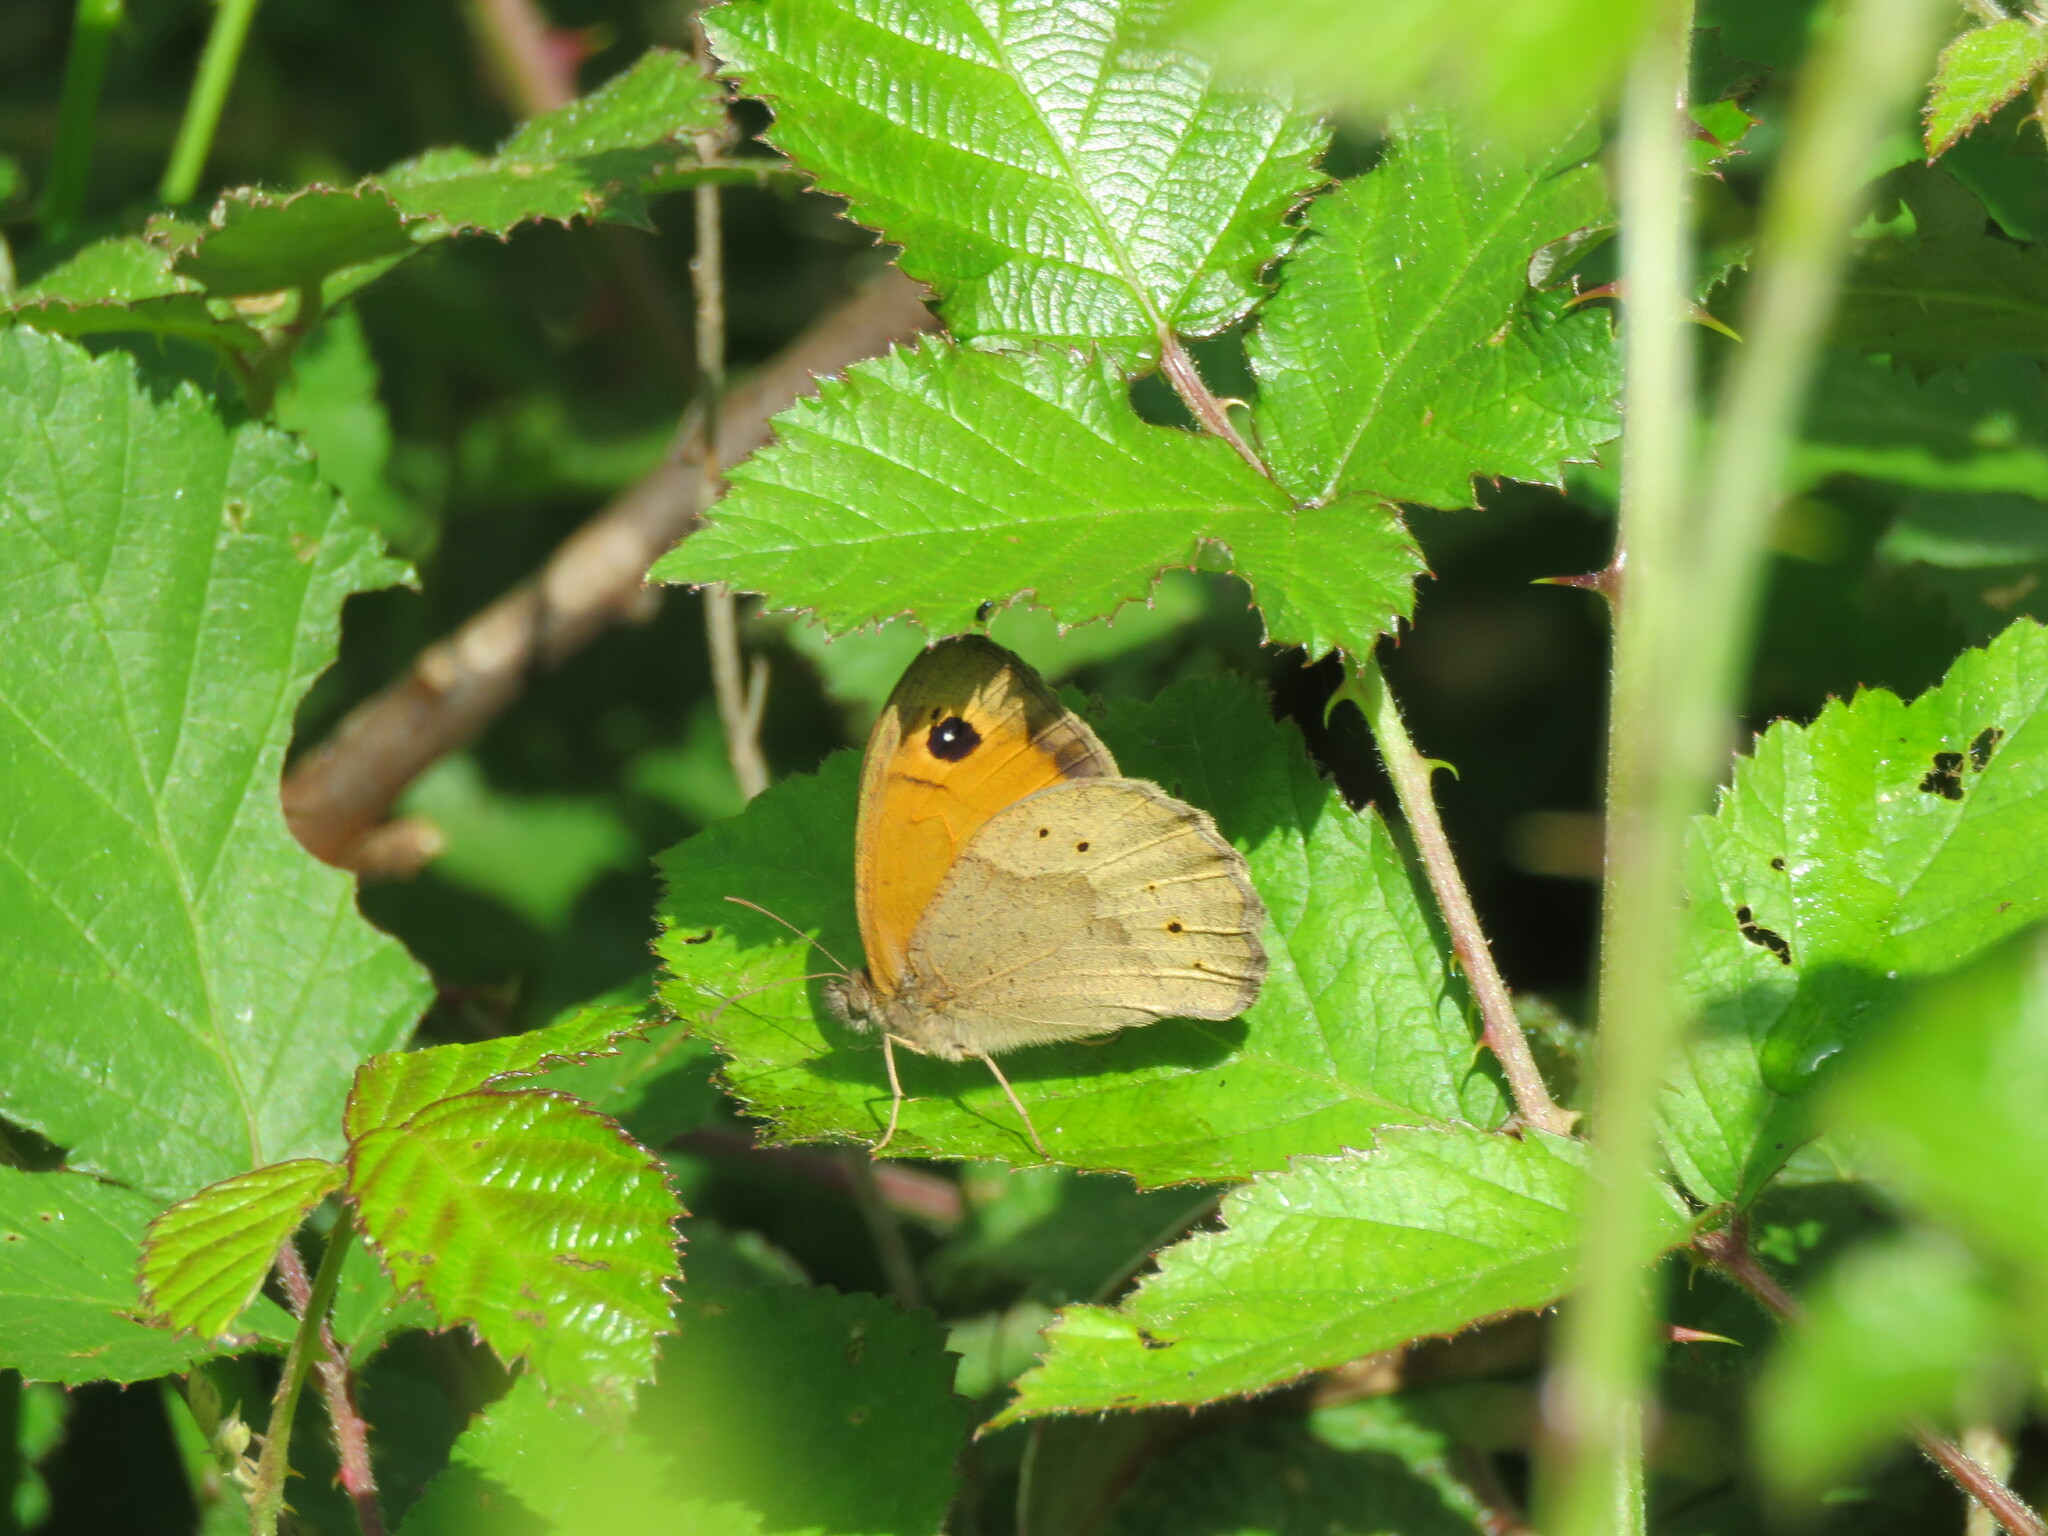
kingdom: Animalia
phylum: Arthropoda
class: Insecta
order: Lepidoptera
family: Nymphalidae
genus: Maniola
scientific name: Maniola jurtina
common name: Meadow brown
